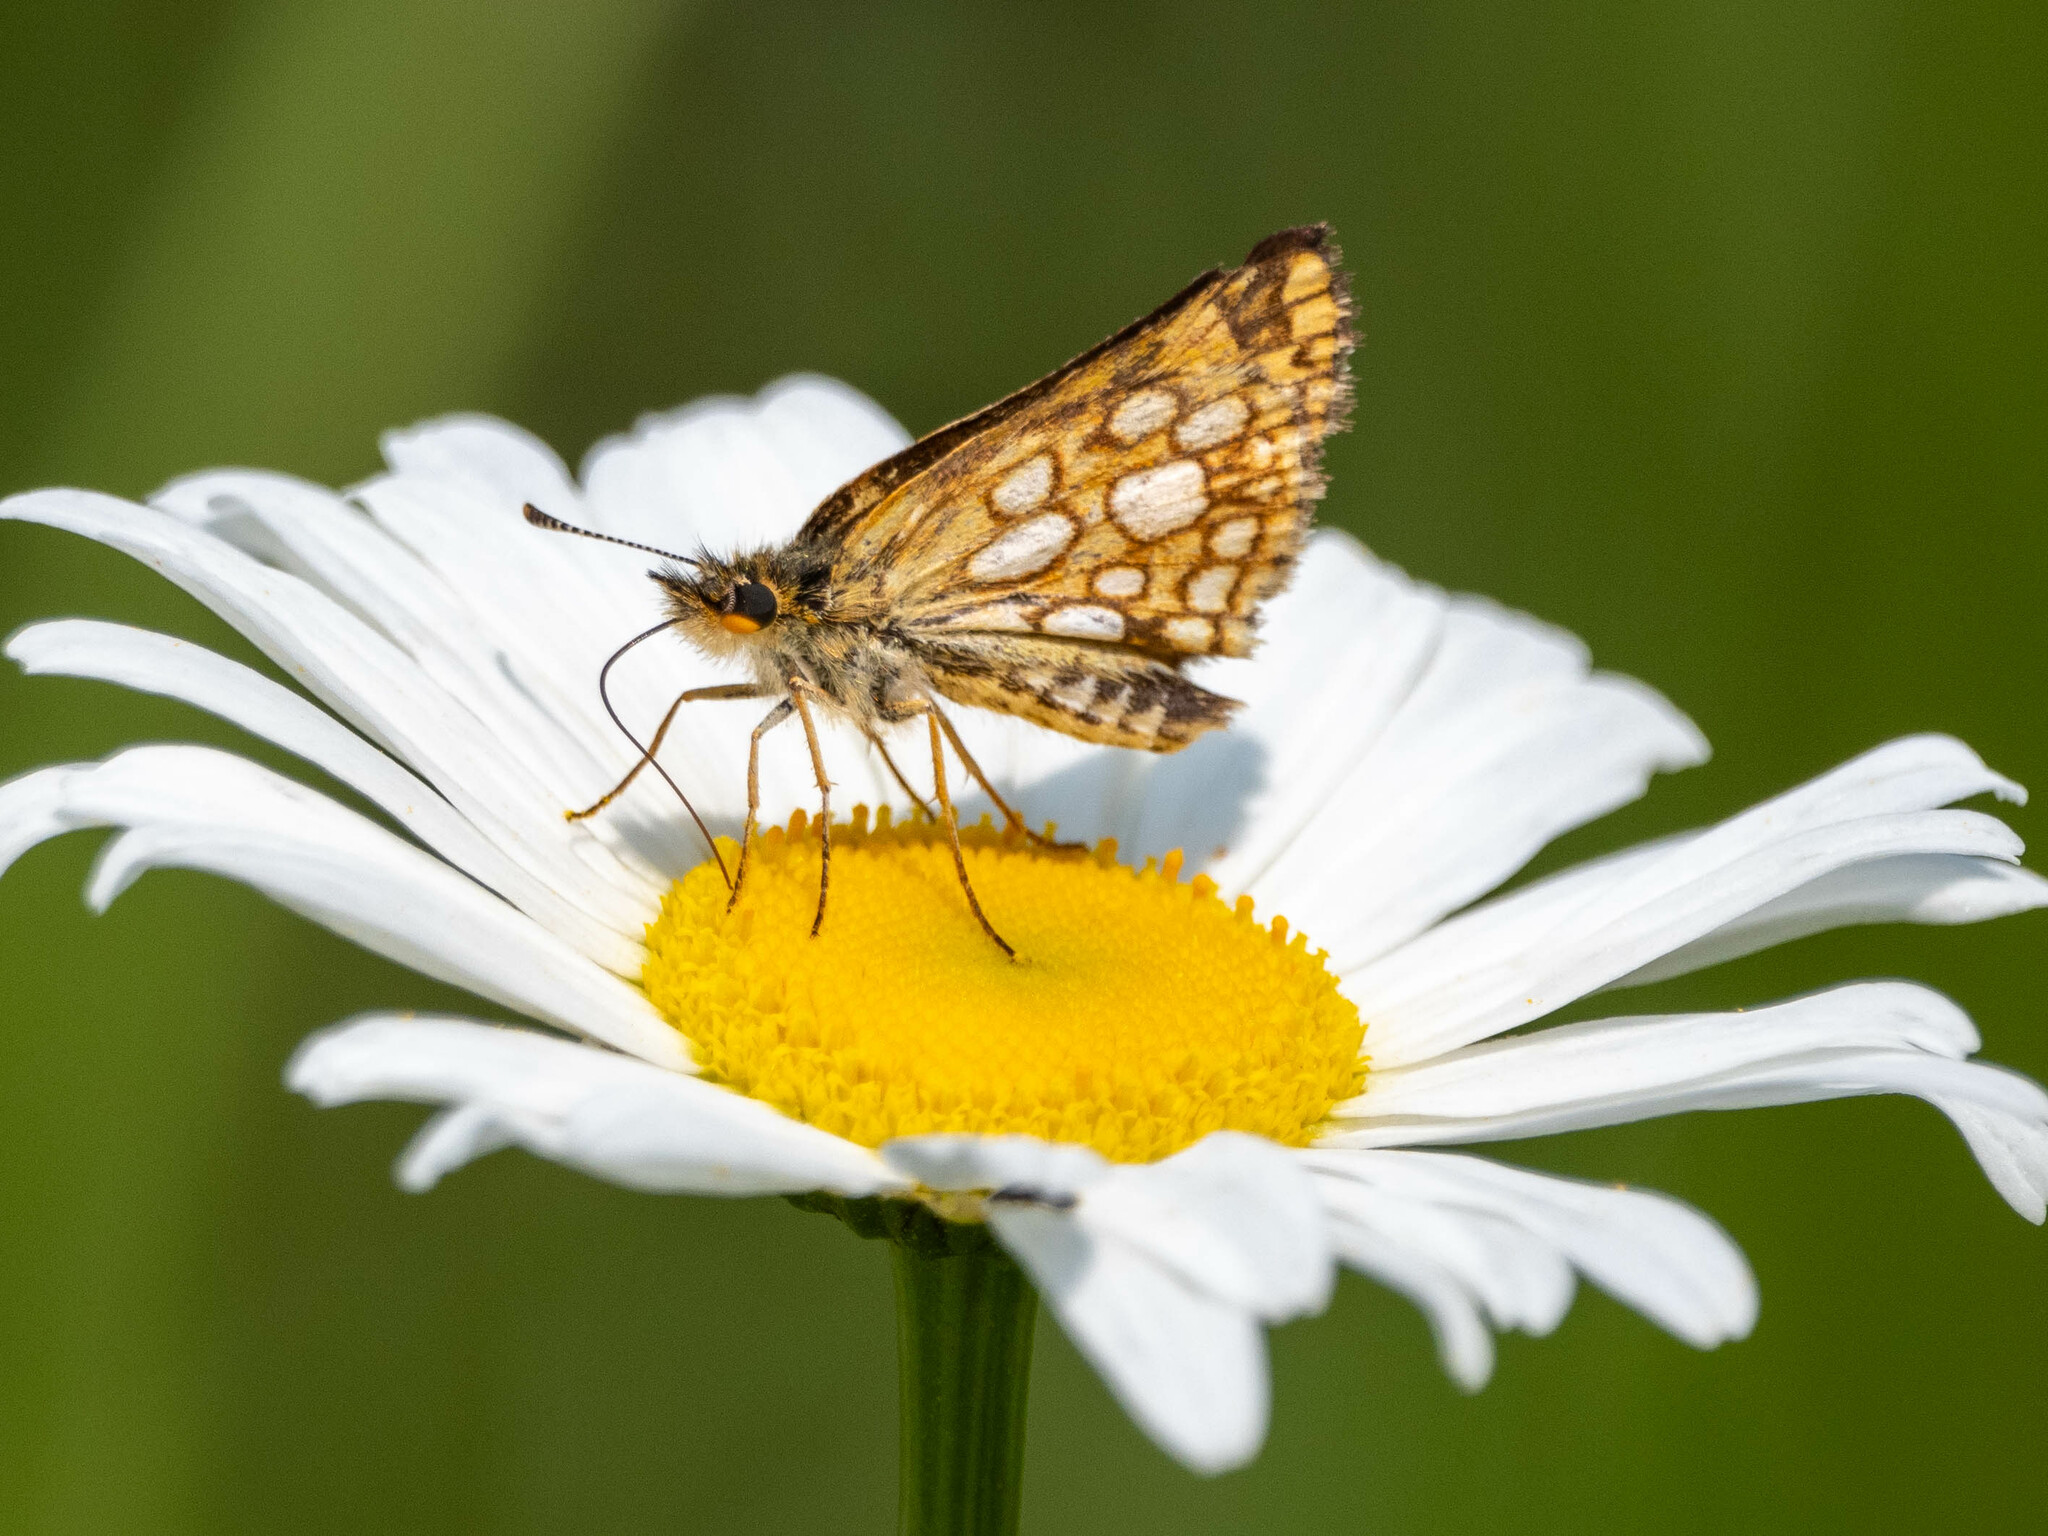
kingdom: Animalia
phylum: Arthropoda
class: Insecta
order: Lepidoptera
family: Hesperiidae
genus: Carterocephalus
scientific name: Carterocephalus mandan
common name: Arctic skipperling
